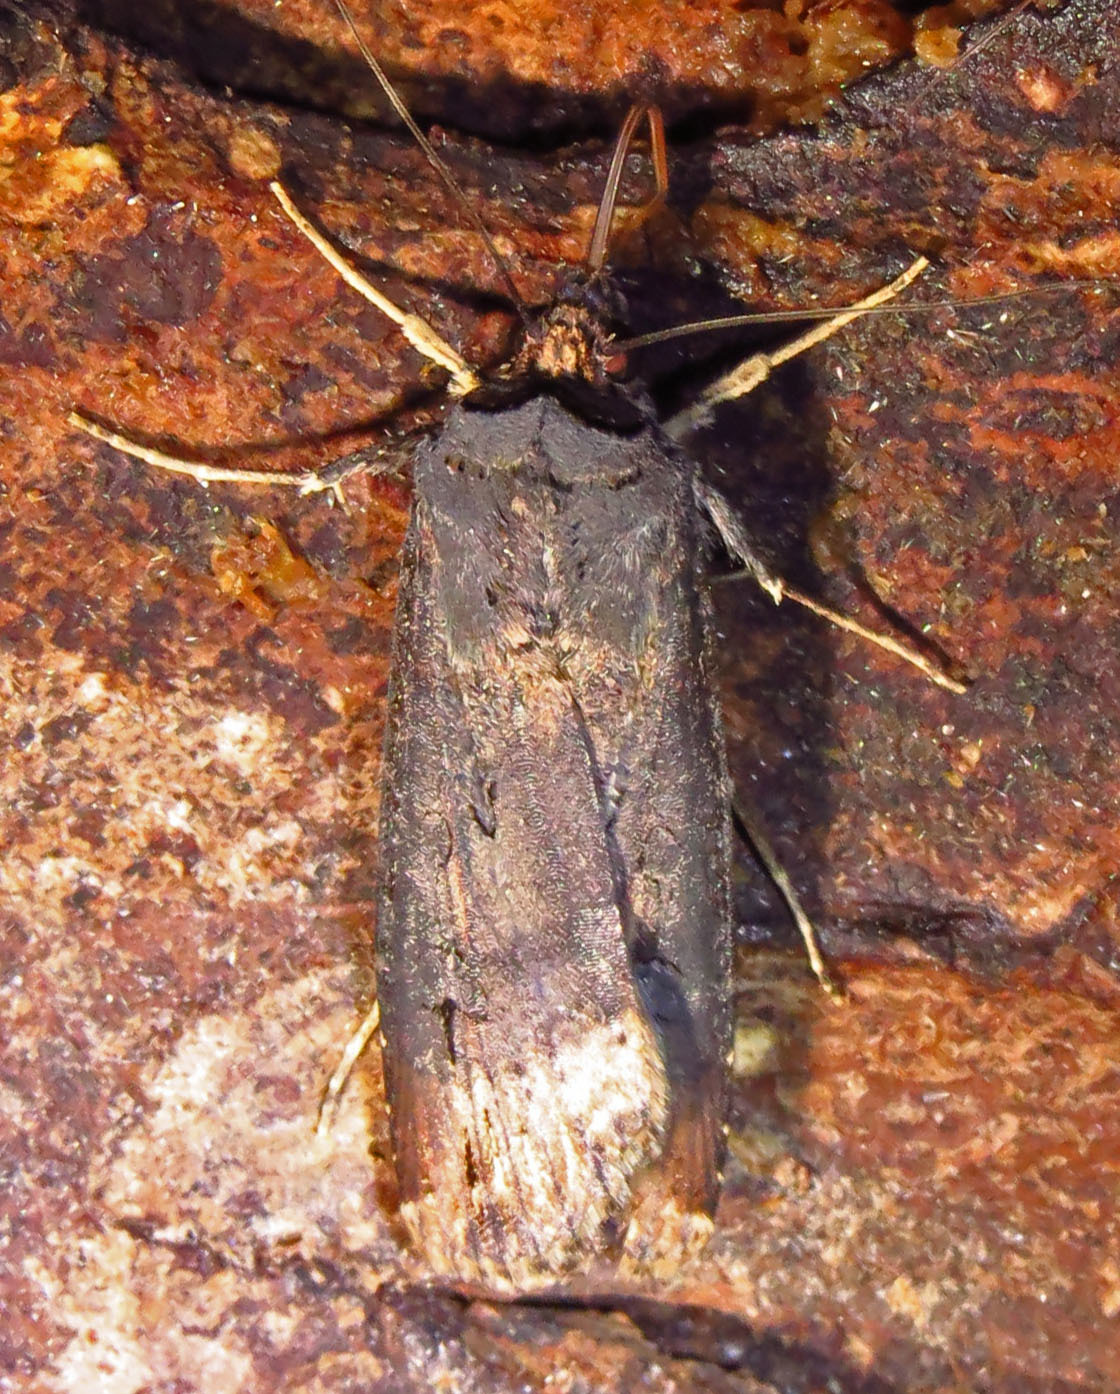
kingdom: Animalia
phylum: Arthropoda
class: Insecta
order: Lepidoptera
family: Noctuidae
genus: Agrotis
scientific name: Agrotis ipsilon
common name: Dark sword-grass
